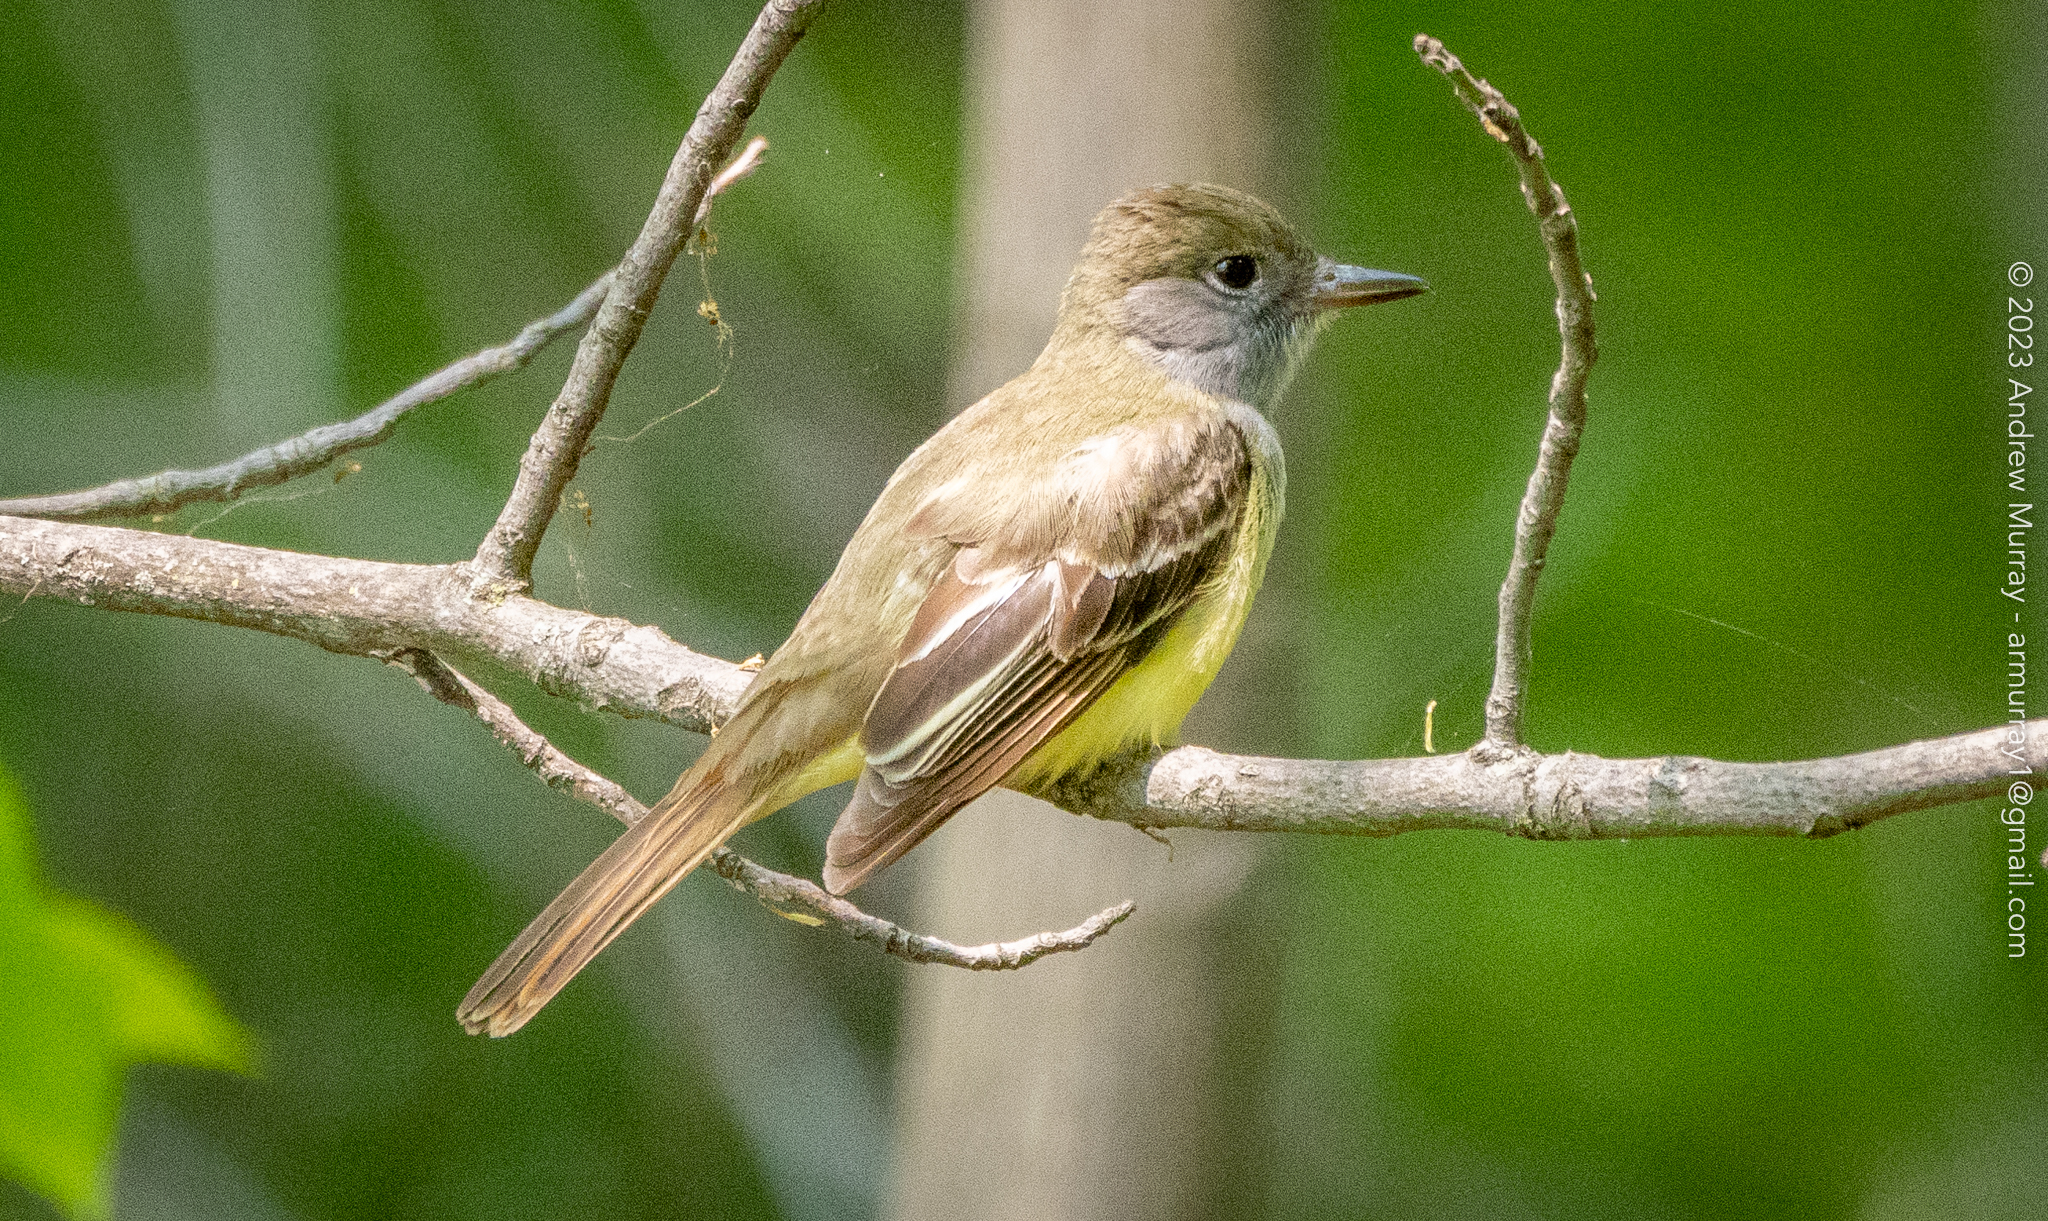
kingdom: Animalia
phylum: Chordata
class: Aves
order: Passeriformes
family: Tyrannidae
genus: Myiarchus
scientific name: Myiarchus crinitus
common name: Great crested flycatcher
